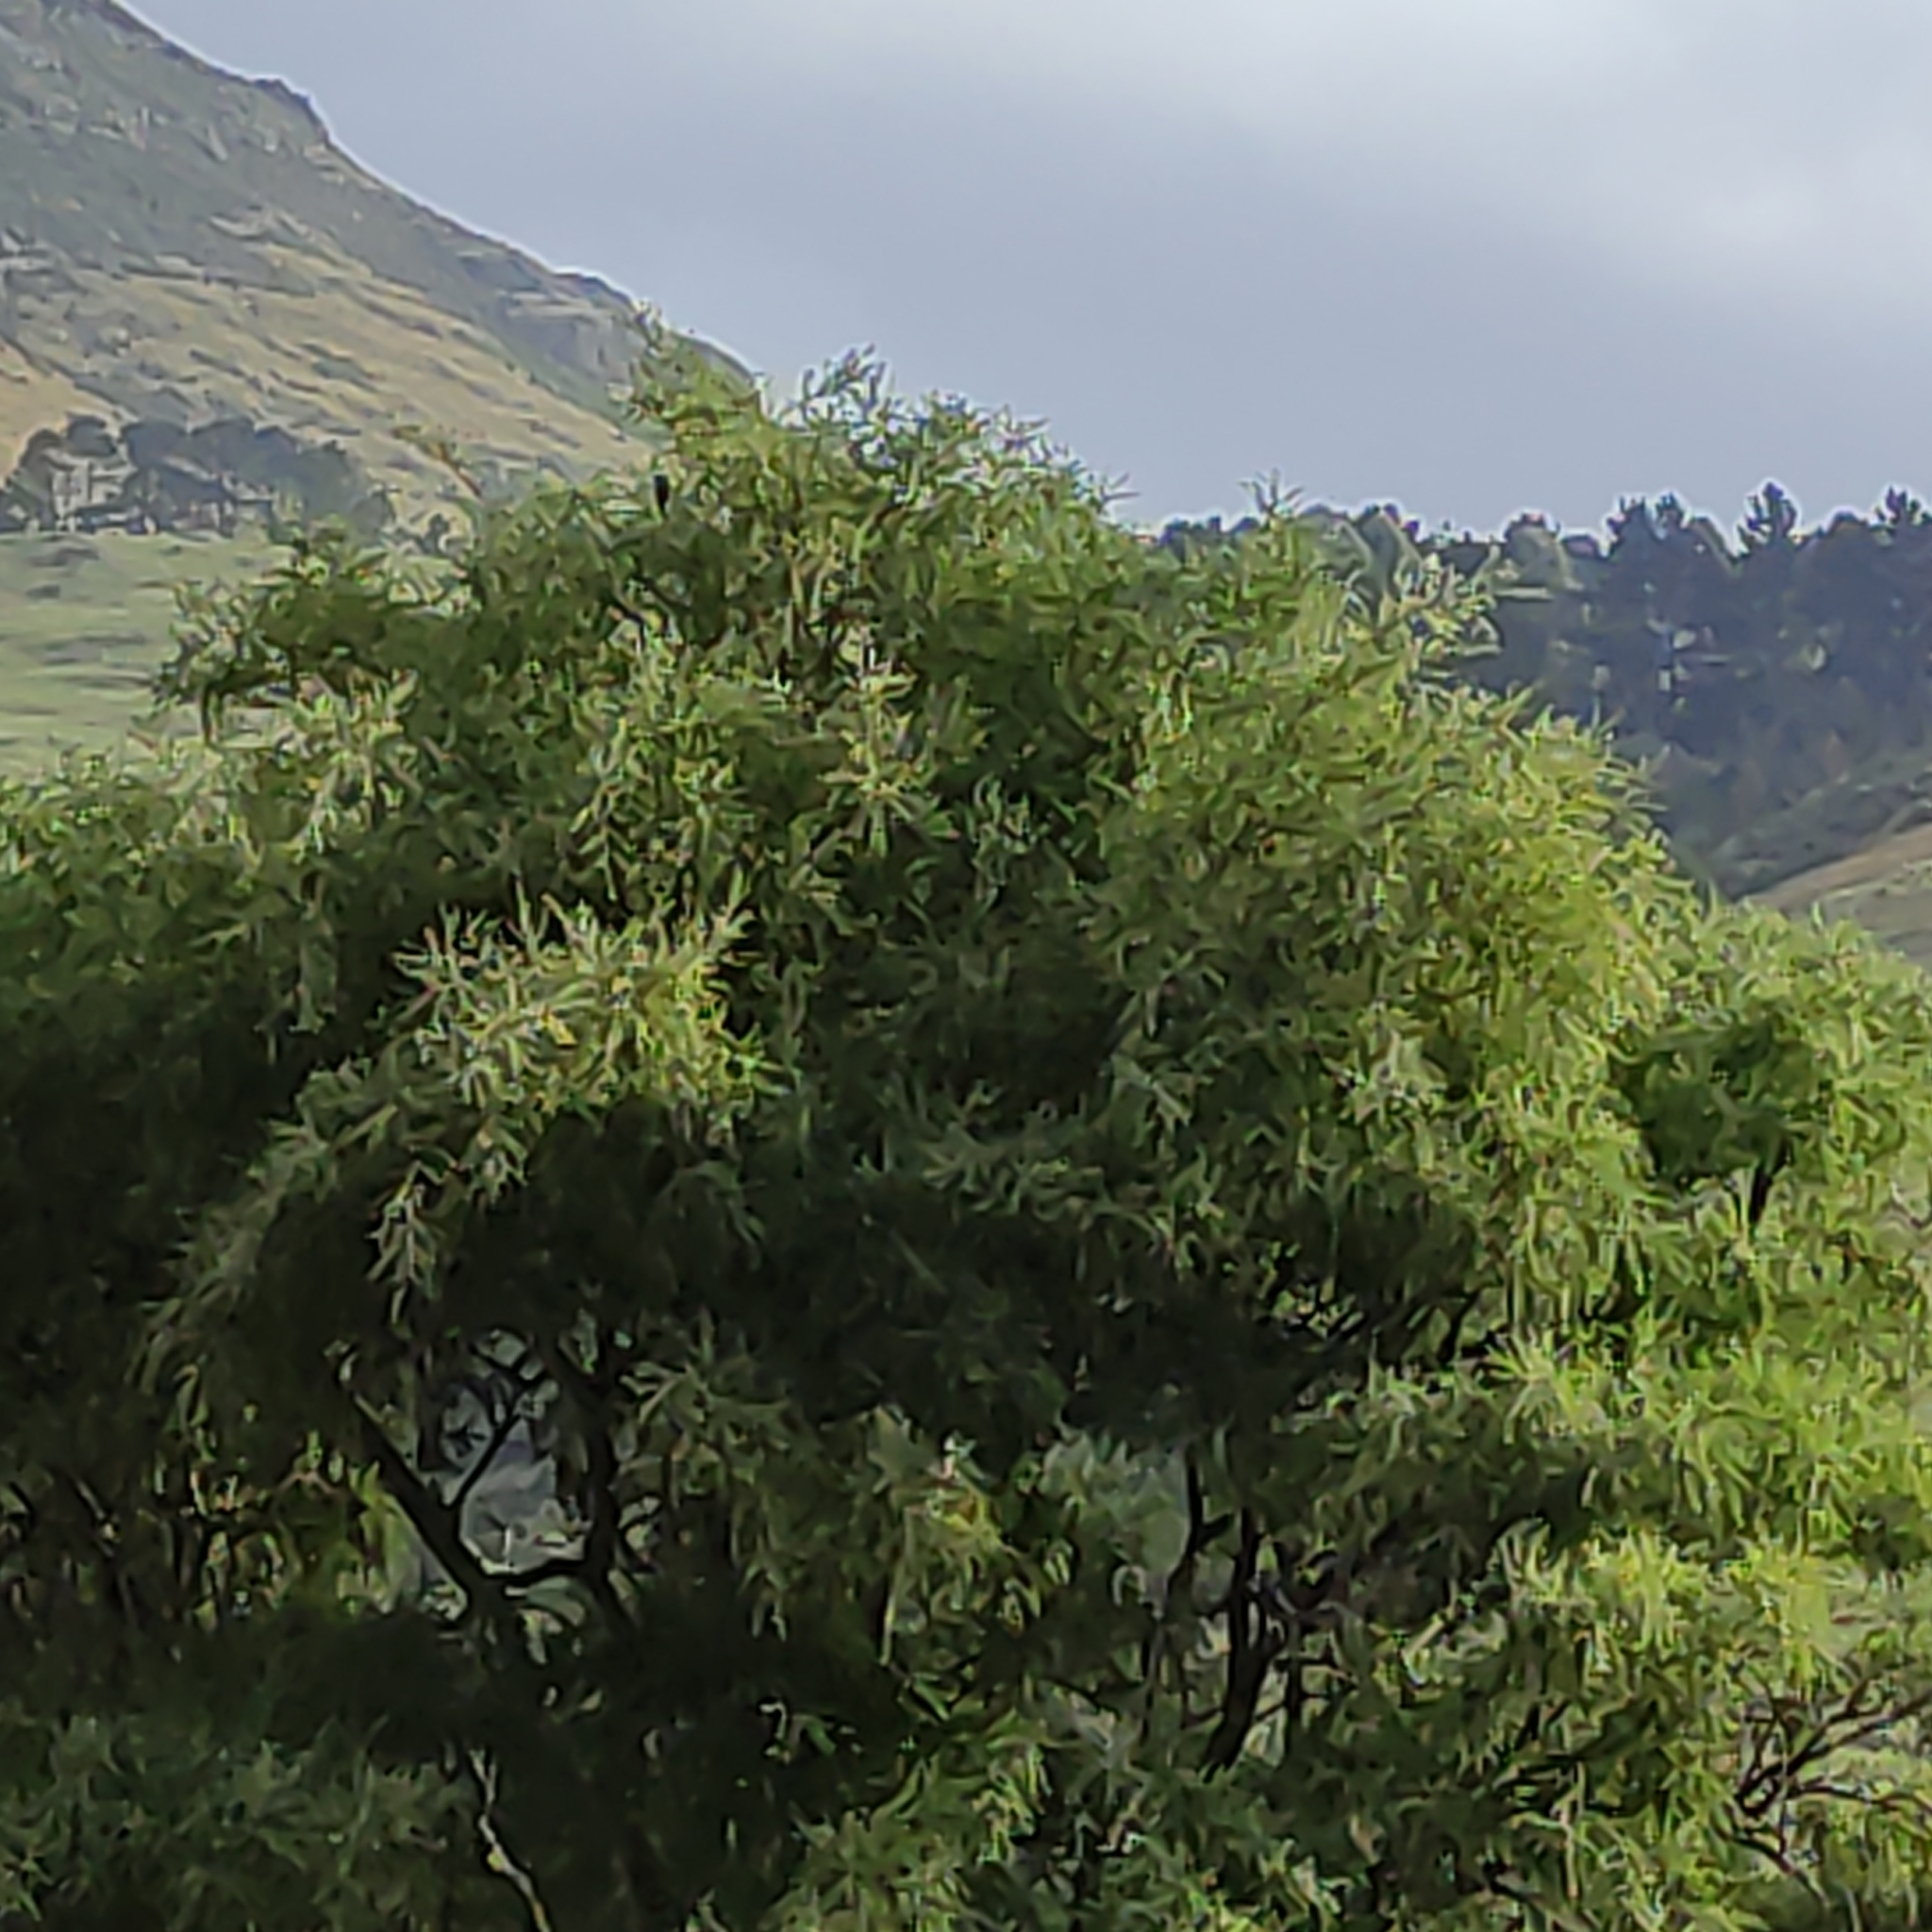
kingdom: Animalia
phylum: Chordata
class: Aves
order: Passeriformes
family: Meliphagidae
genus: Anthornis
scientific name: Anthornis melanura
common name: New zealand bellbird
